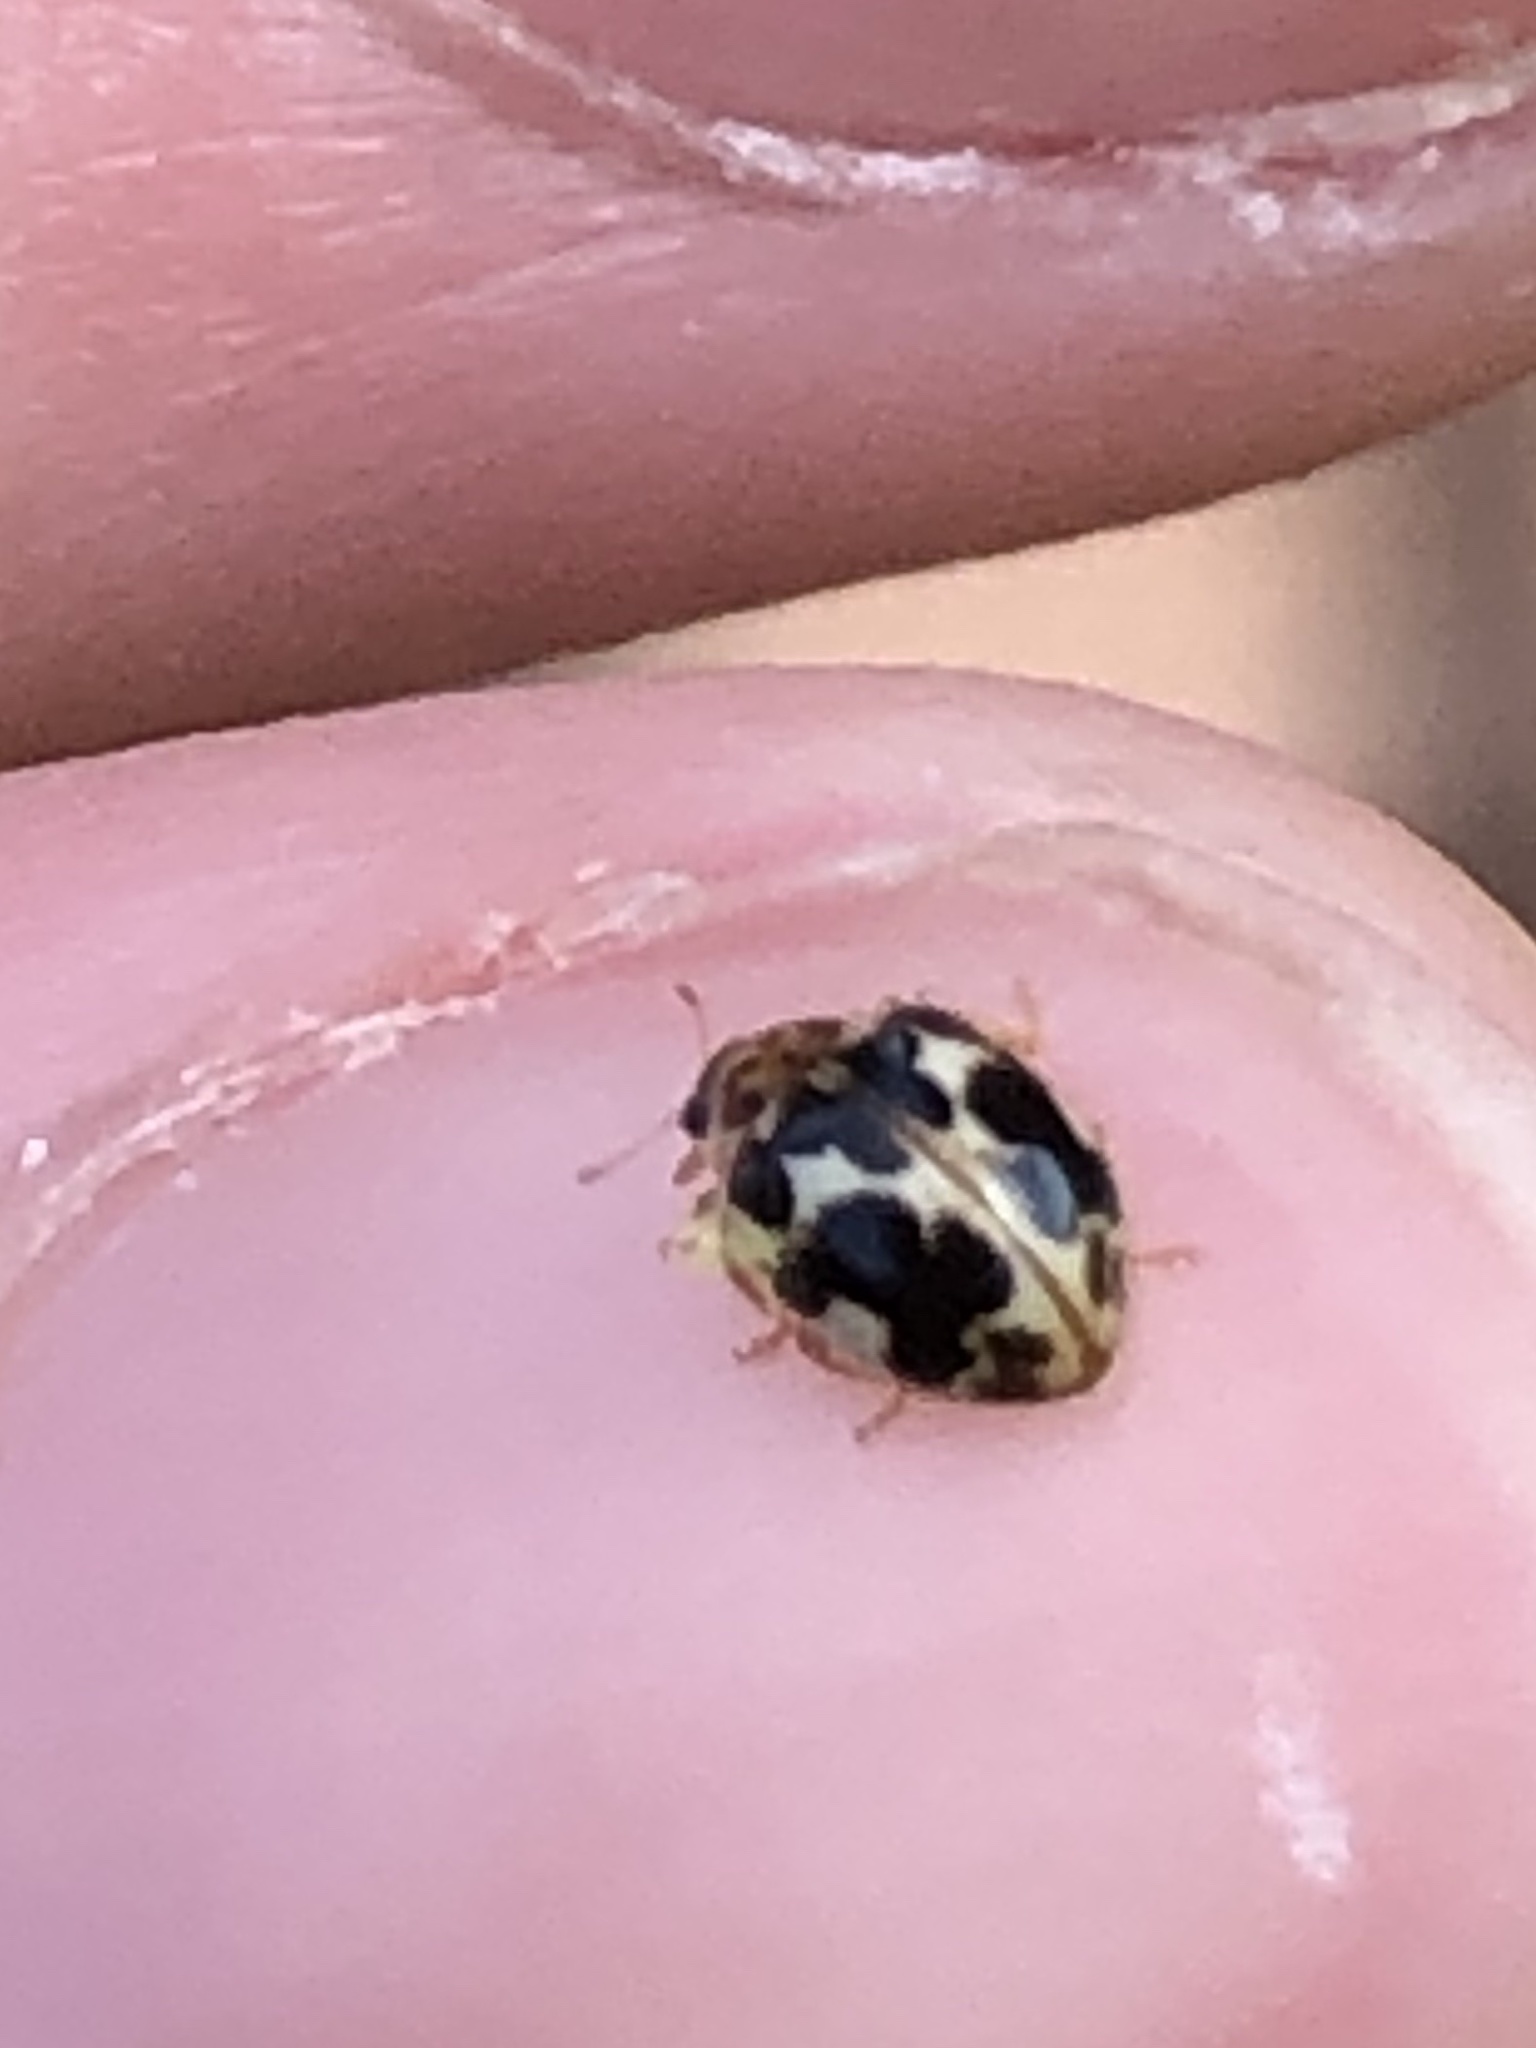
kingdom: Animalia
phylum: Arthropoda
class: Insecta
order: Coleoptera
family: Coccinellidae
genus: Psyllobora
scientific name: Psyllobora vigintimaculata
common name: Ladybird beetle
